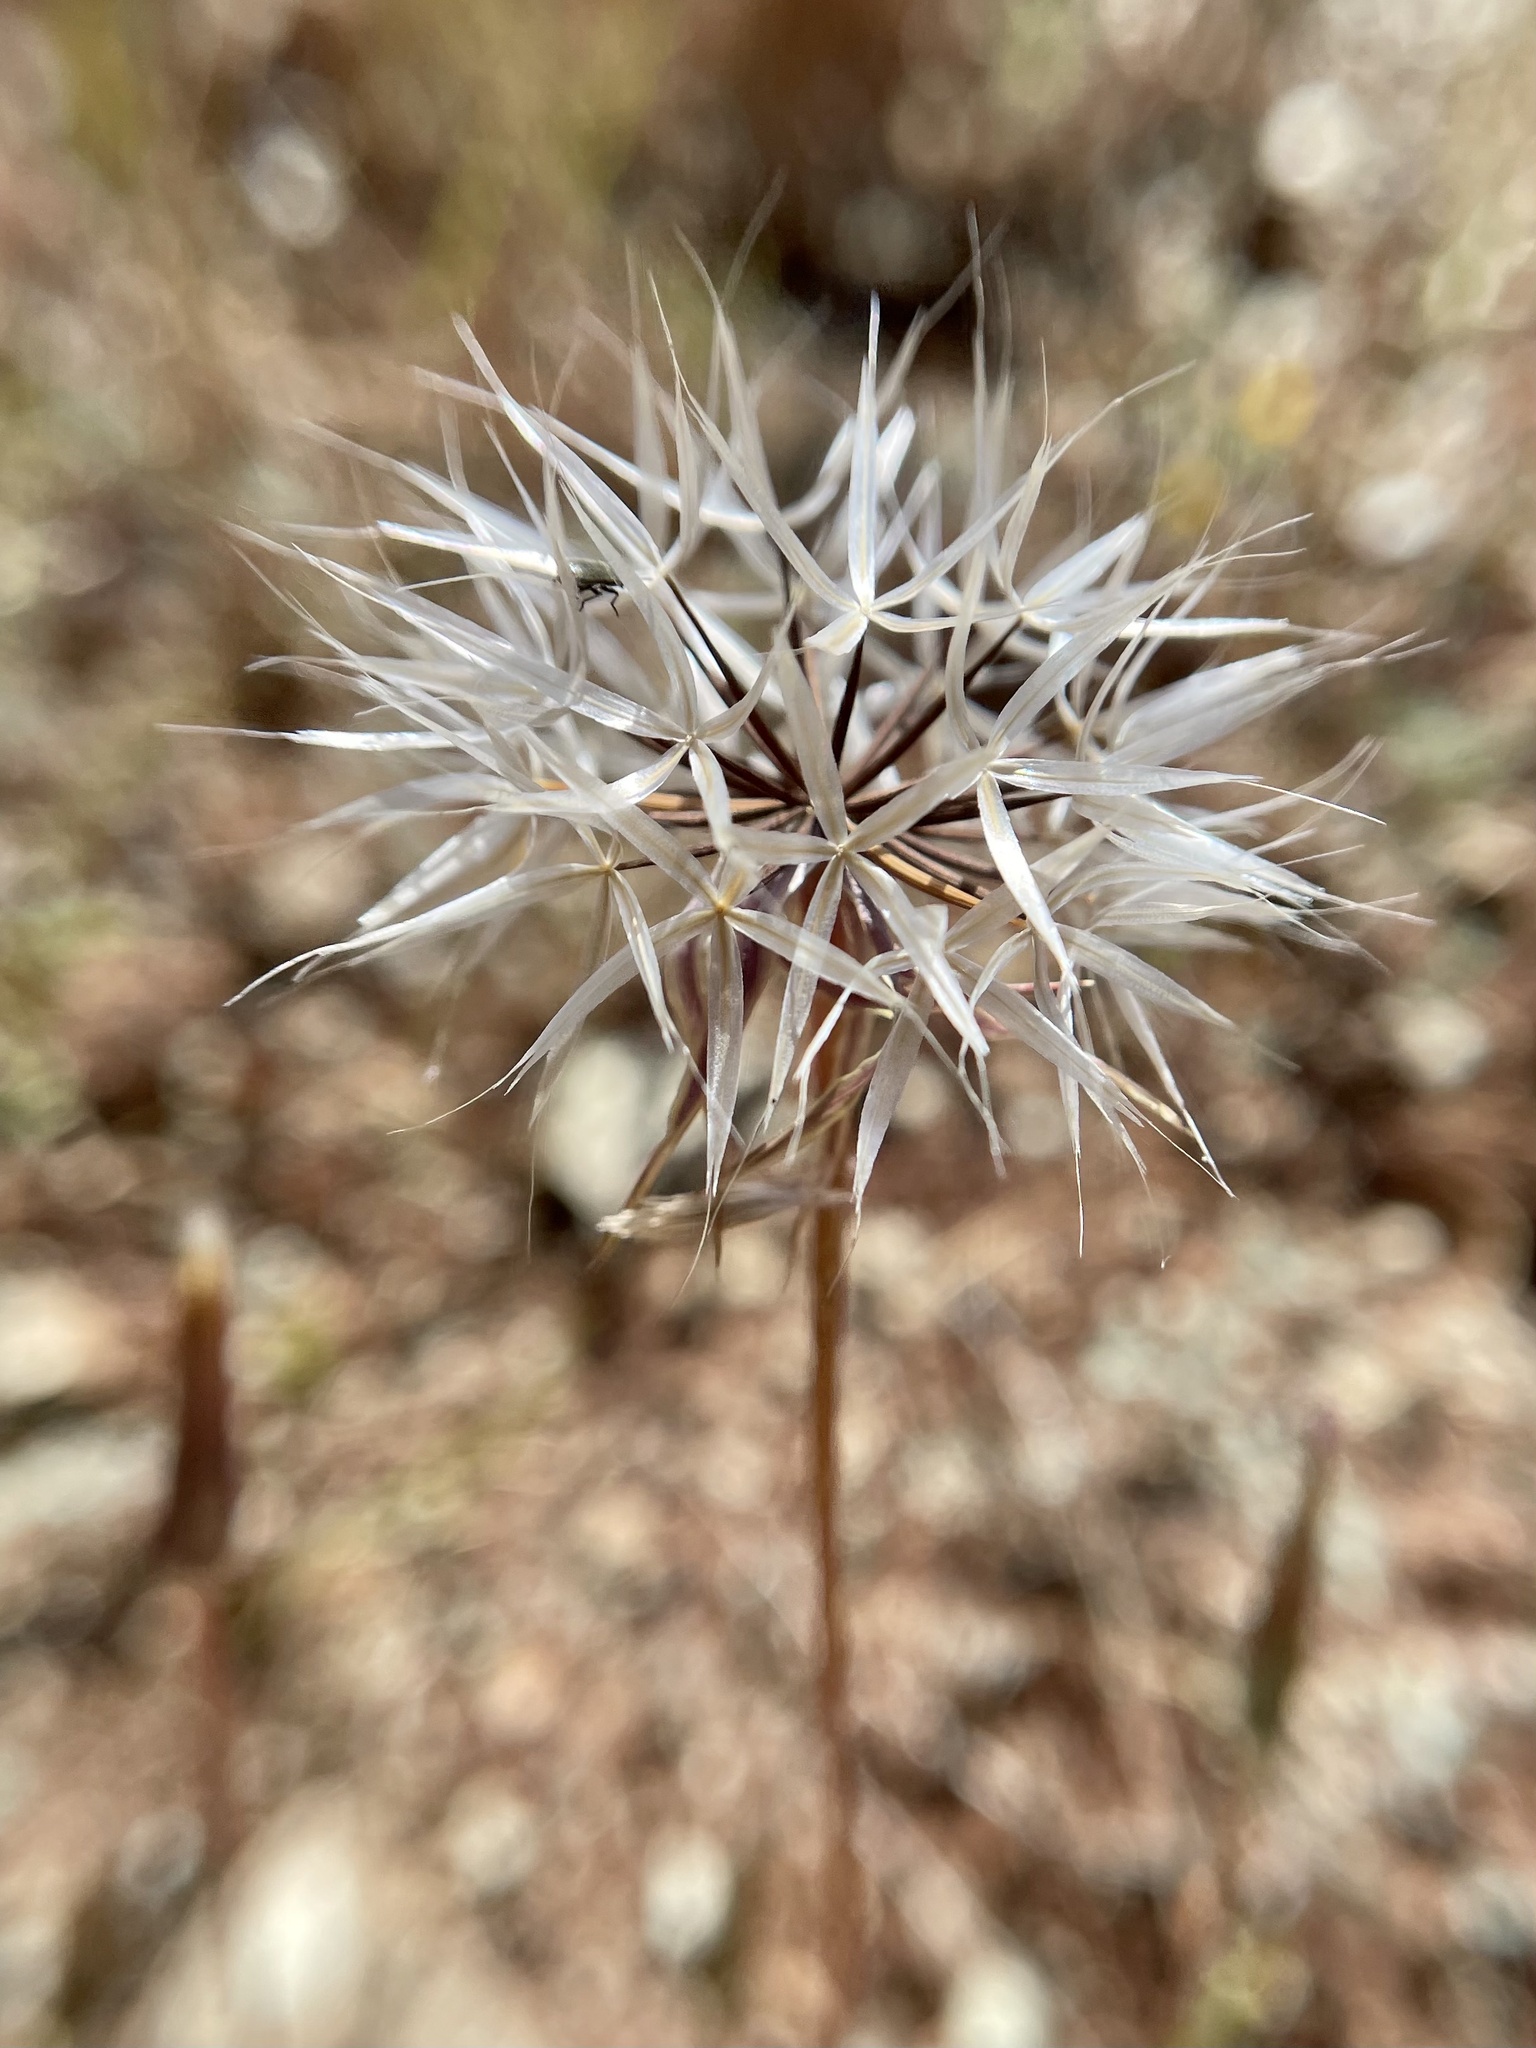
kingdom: Plantae
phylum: Tracheophyta
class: Magnoliopsida
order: Asterales
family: Asteraceae
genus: Microseris
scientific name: Microseris lindleyi
